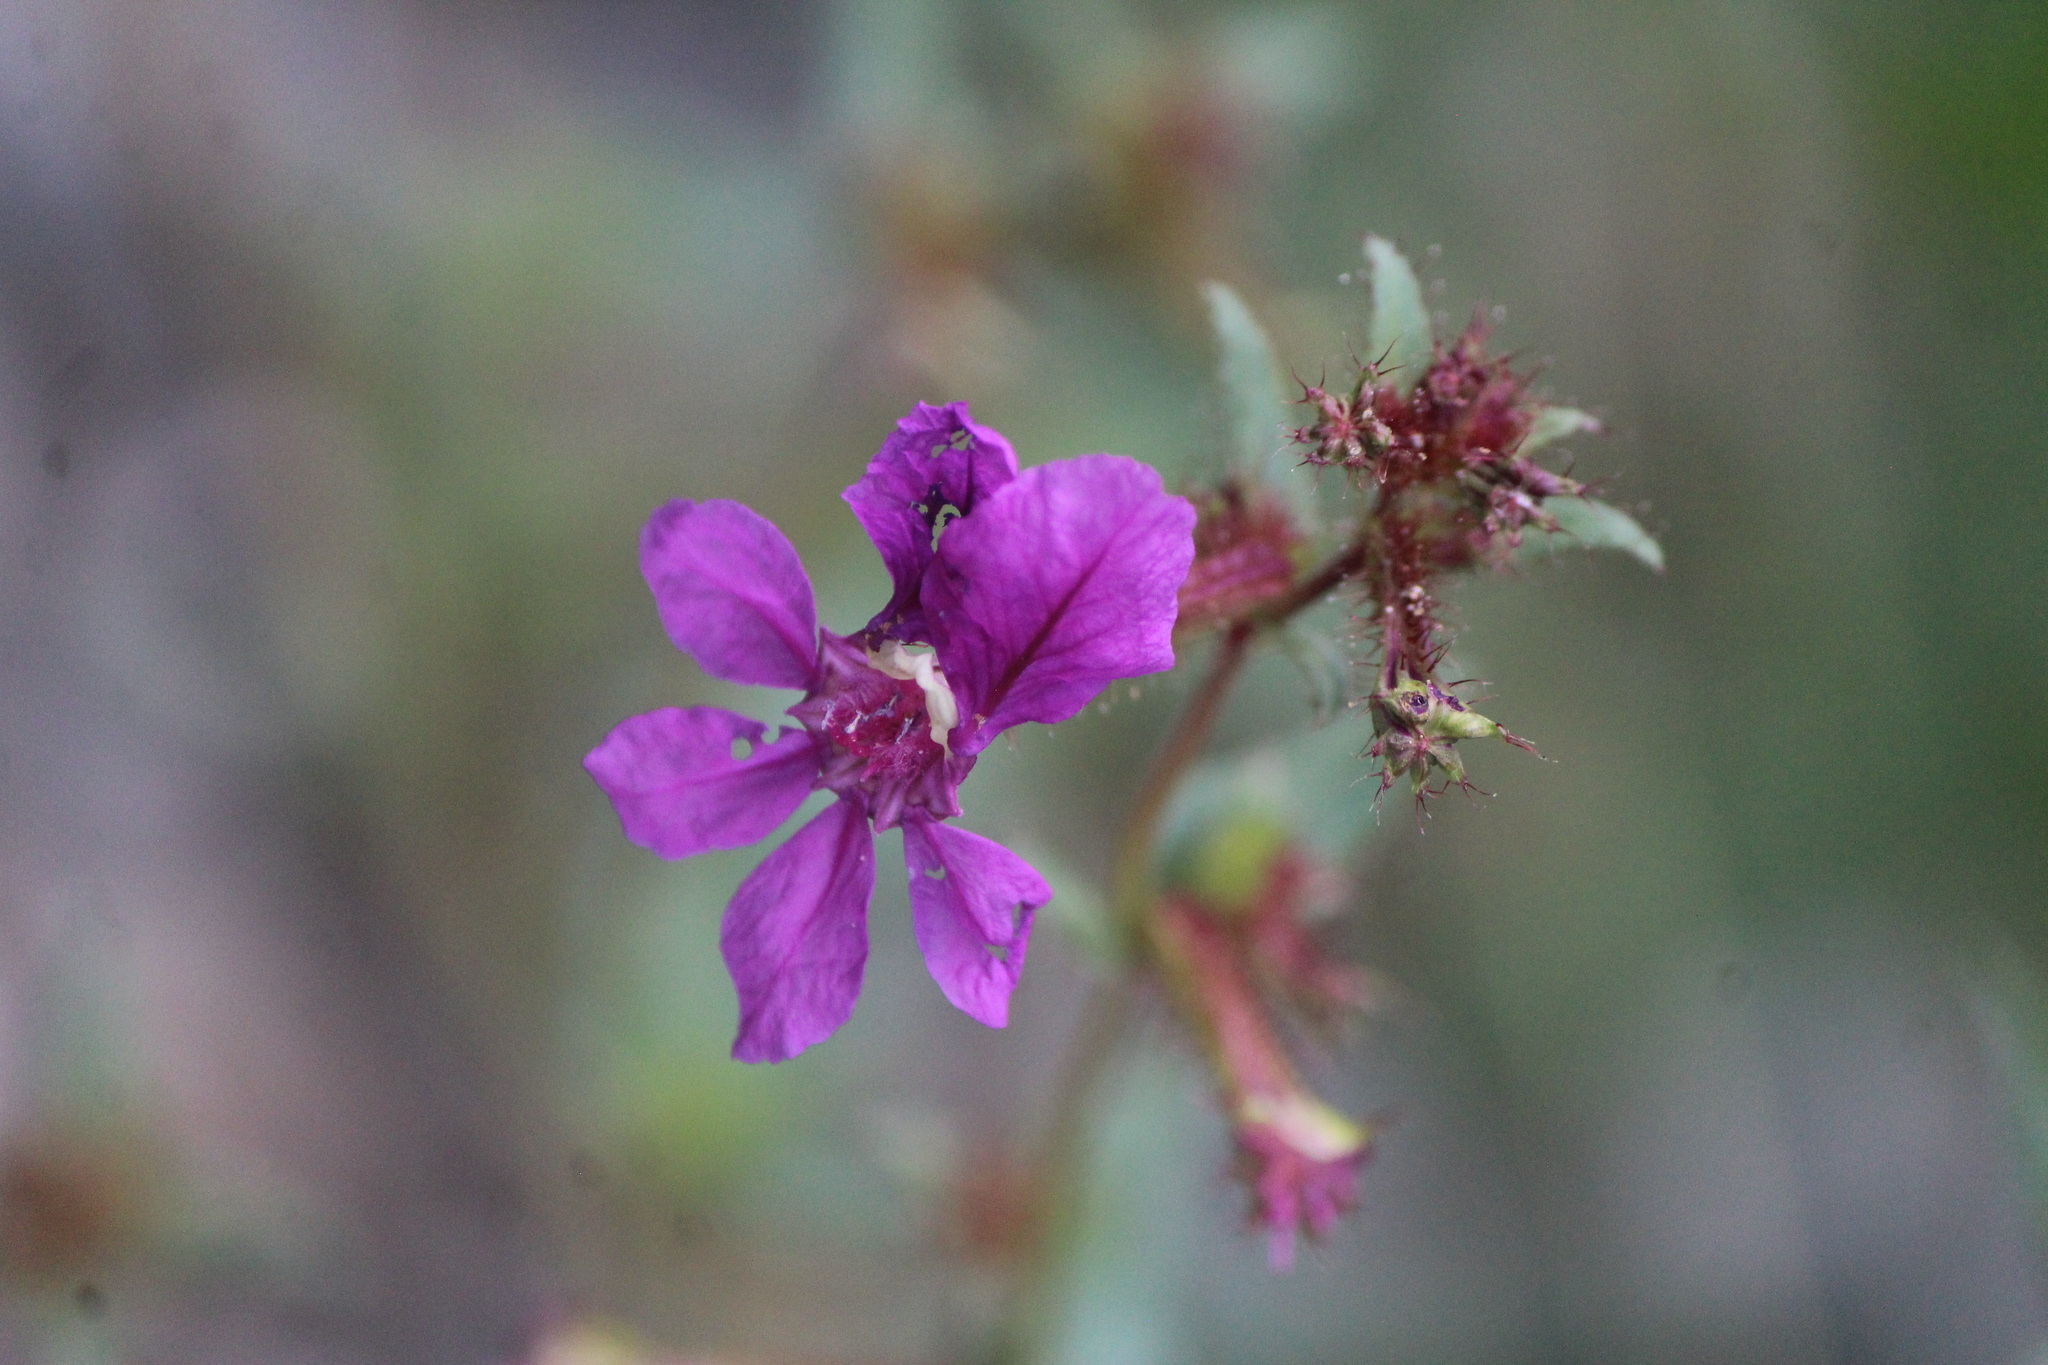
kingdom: Plantae
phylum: Tracheophyta
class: Magnoliopsida
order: Myrtales
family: Lythraceae
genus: Cuphea
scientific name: Cuphea aequipetala
